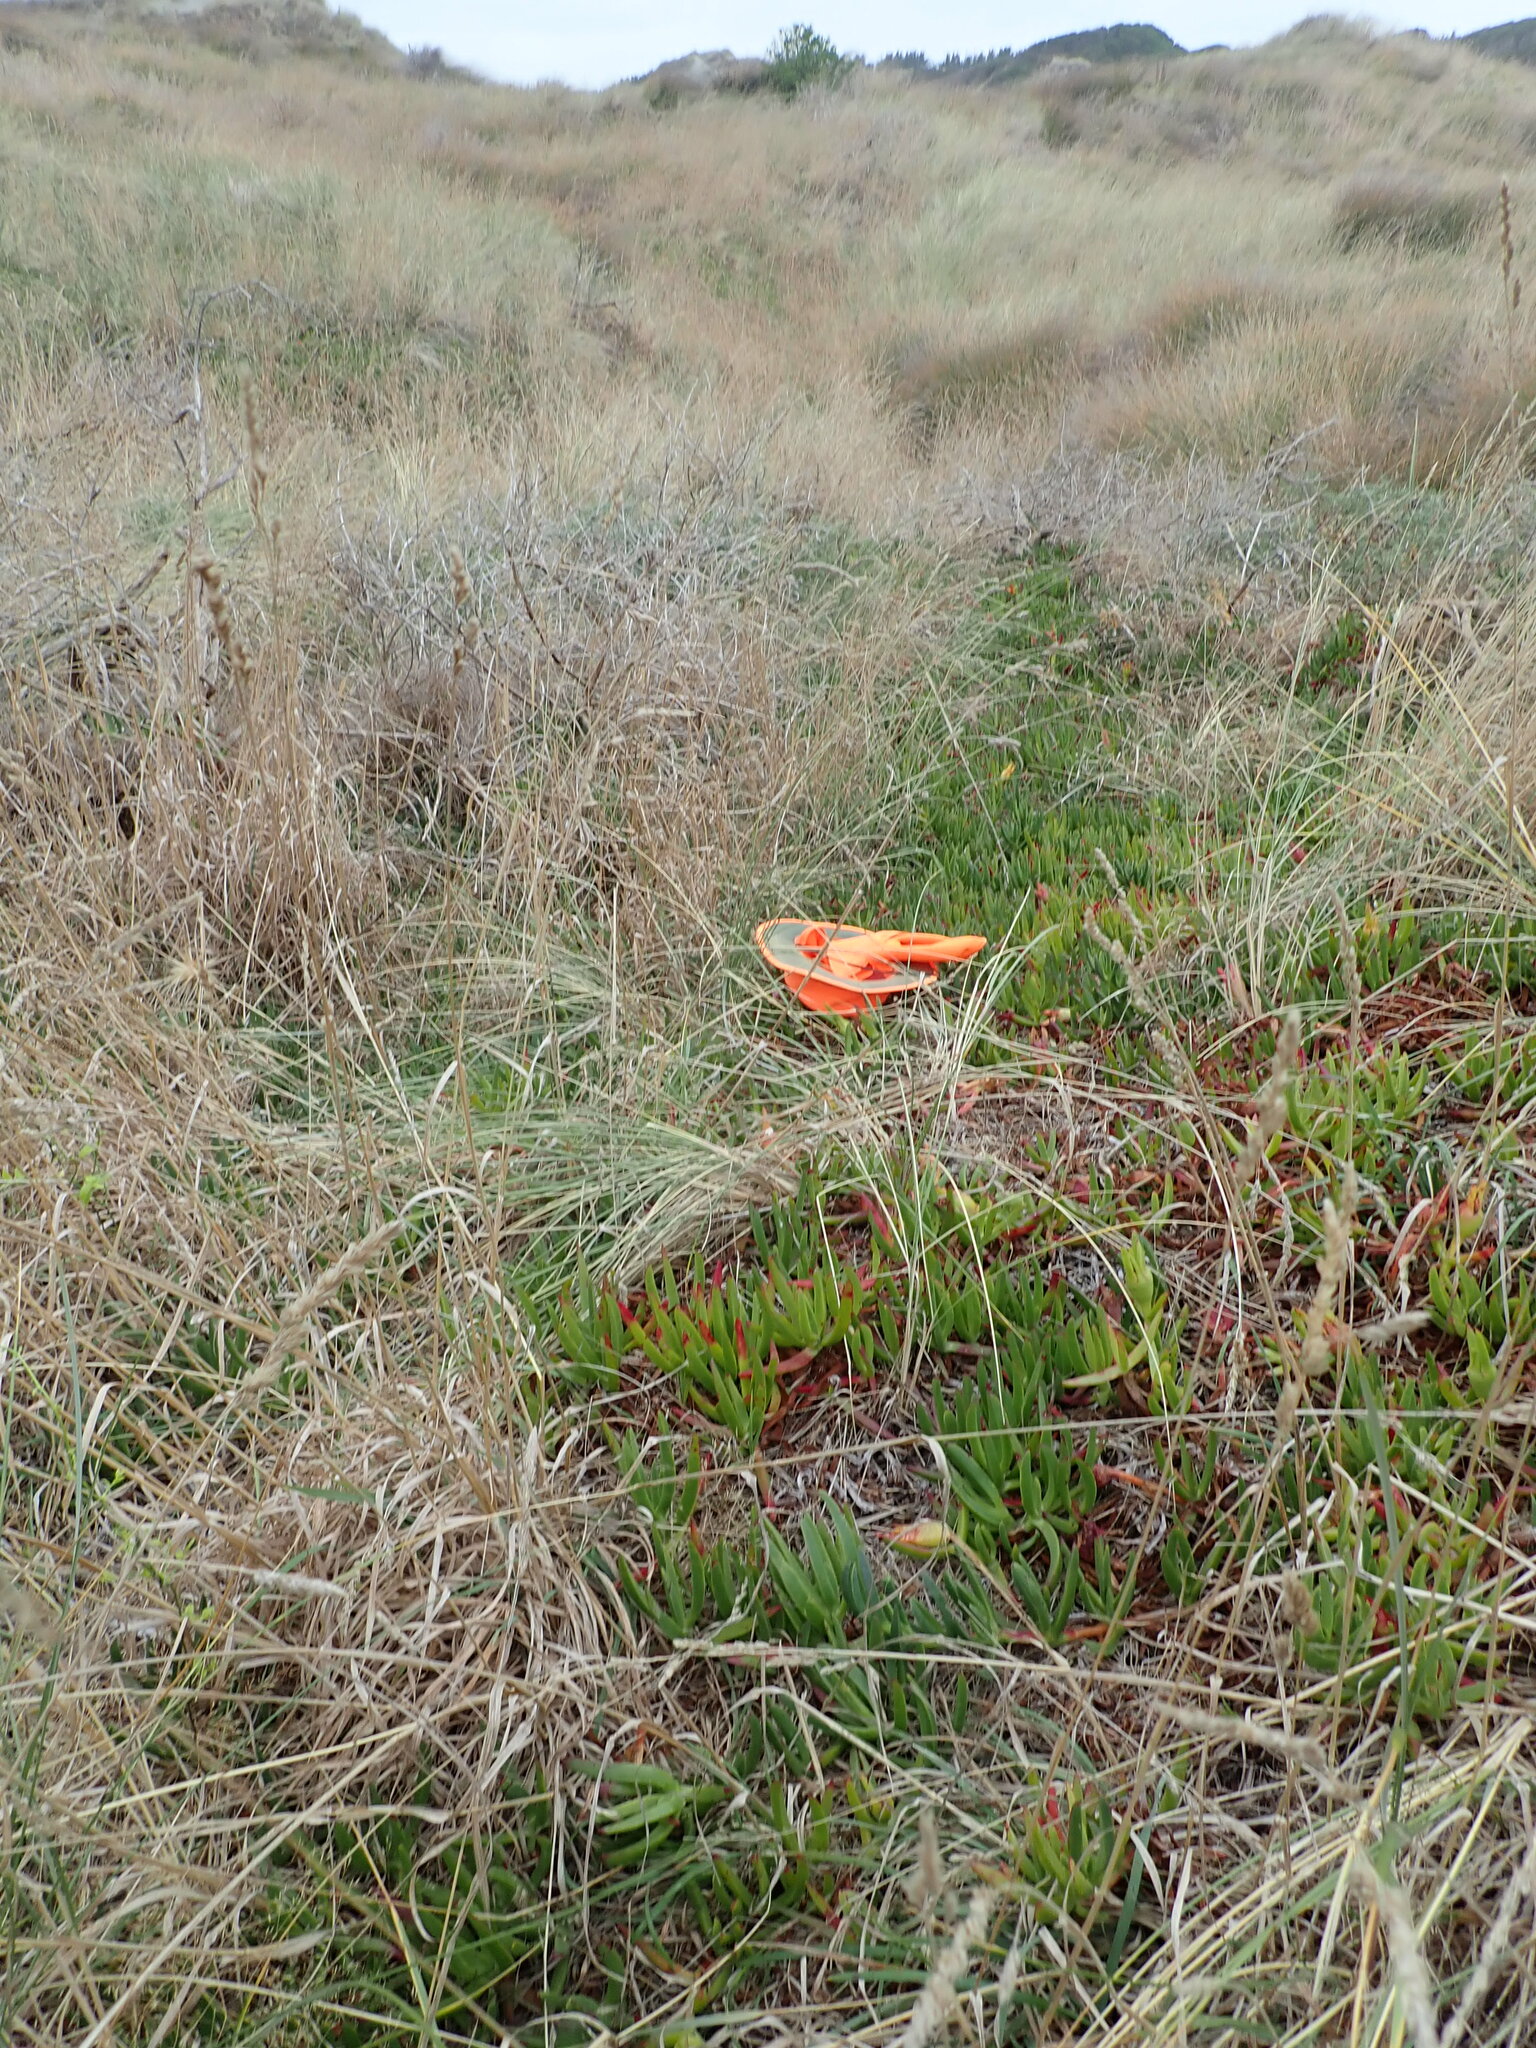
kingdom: Plantae
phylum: Tracheophyta
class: Magnoliopsida
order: Caryophyllales
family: Aizoaceae
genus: Carpobrotus
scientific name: Carpobrotus edulis
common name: Hottentot-fig
